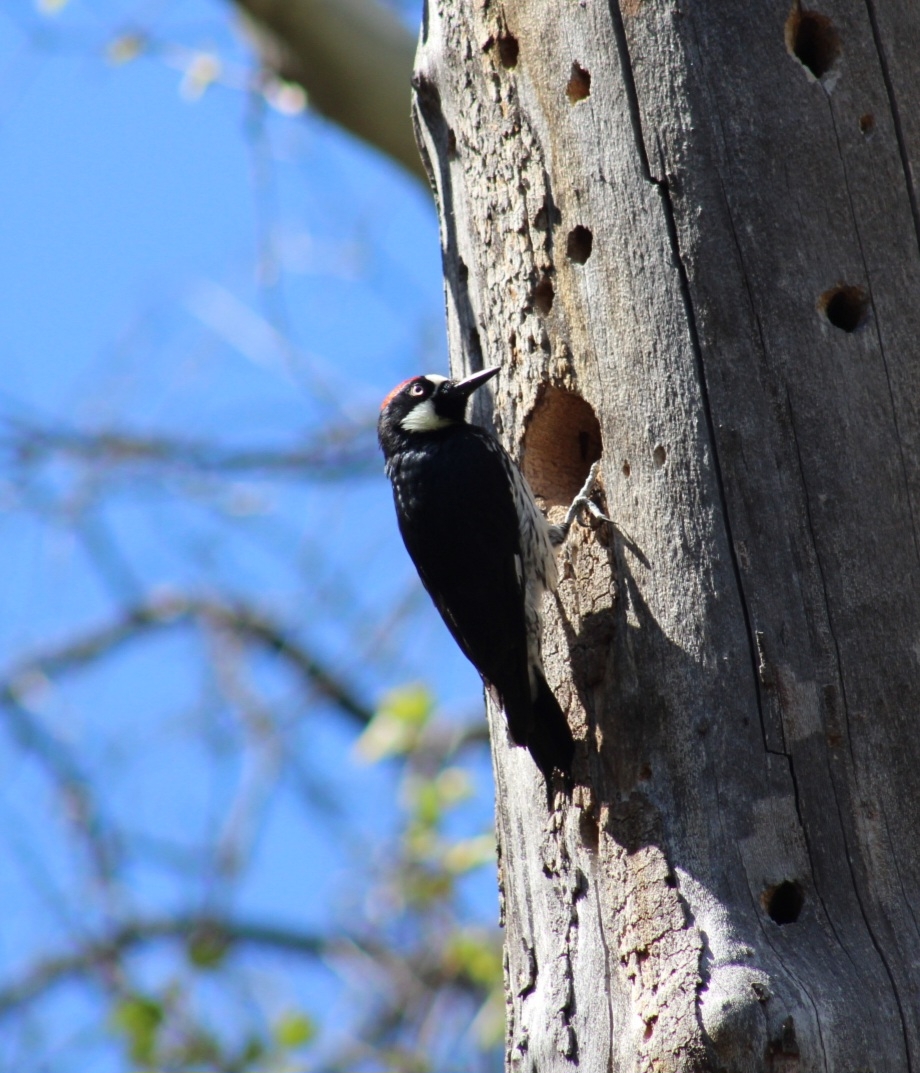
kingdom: Animalia
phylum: Chordata
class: Aves
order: Piciformes
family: Picidae
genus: Melanerpes
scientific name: Melanerpes formicivorus
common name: Acorn woodpecker
